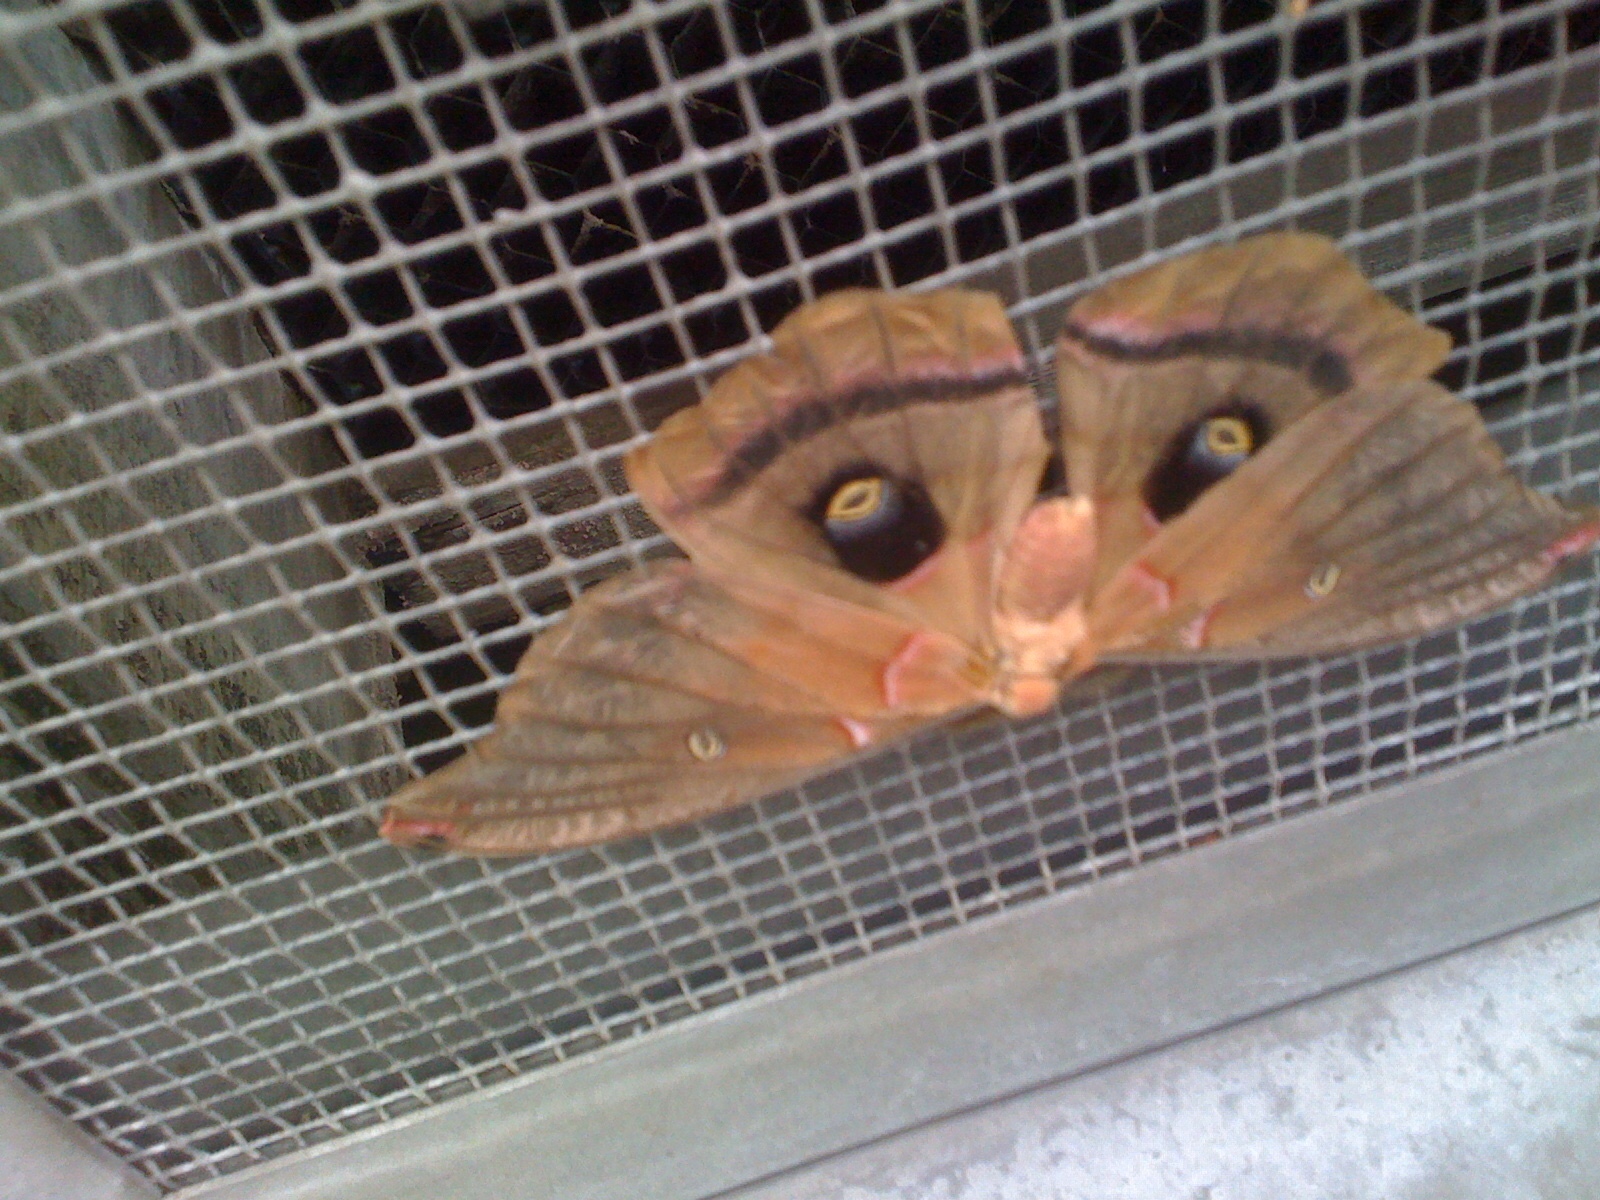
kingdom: Animalia
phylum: Arthropoda
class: Insecta
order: Lepidoptera
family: Saturniidae
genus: Antheraea
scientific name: Antheraea polyphemus
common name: Polyphemus moth
